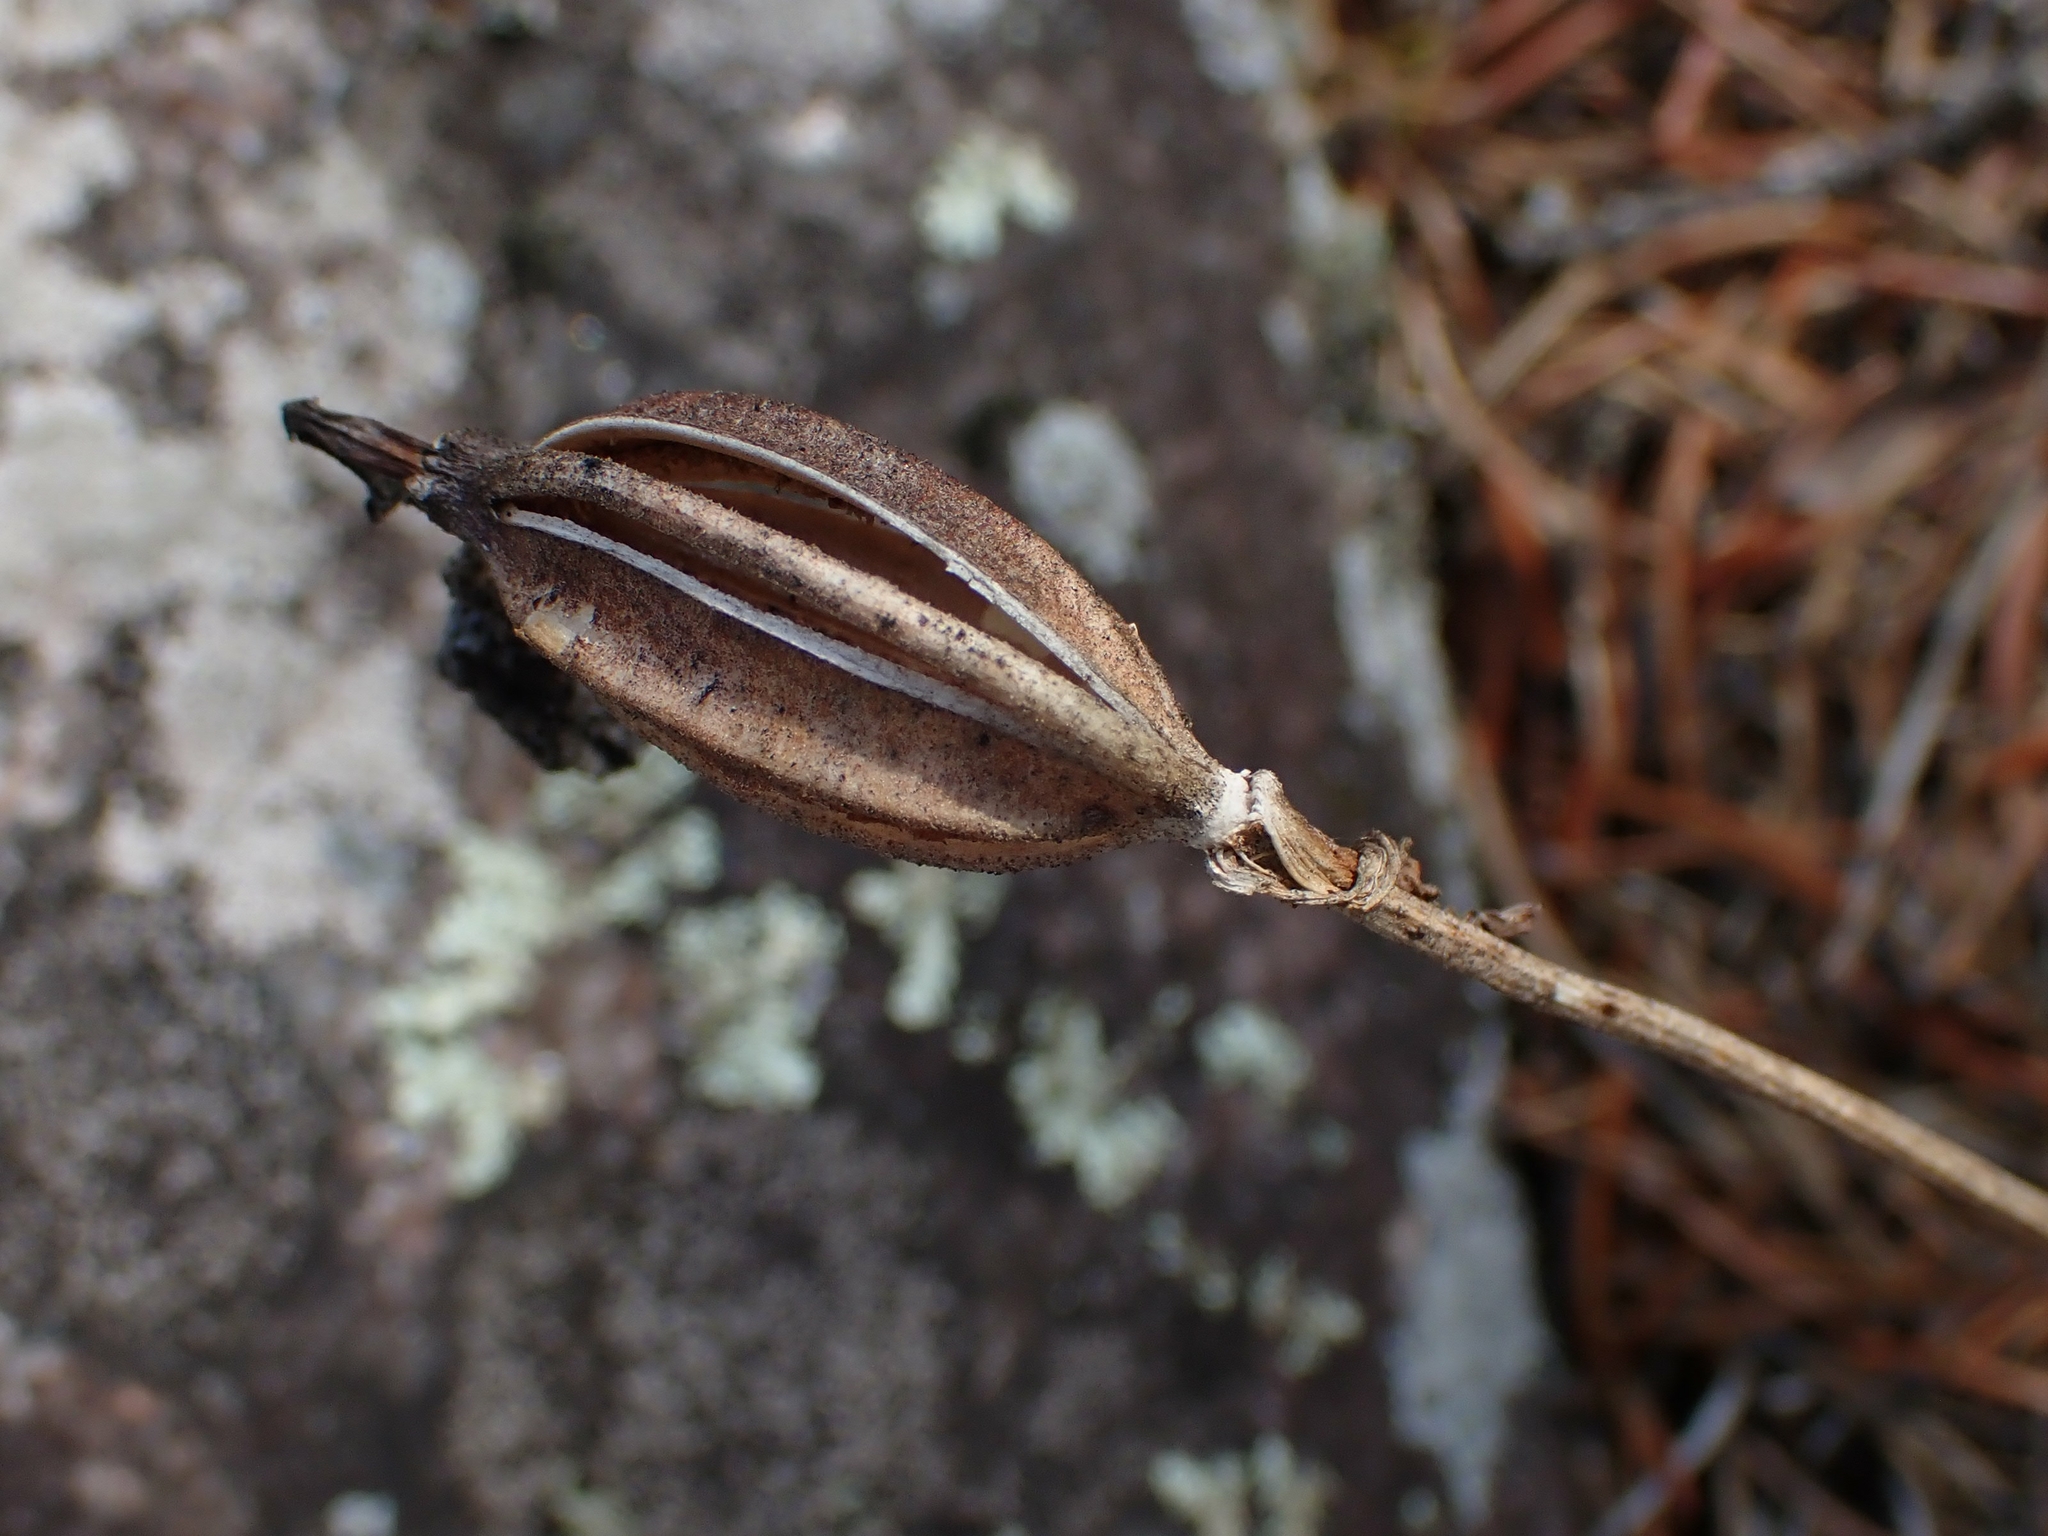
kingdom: Plantae
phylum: Tracheophyta
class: Liliopsida
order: Asparagales
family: Orchidaceae
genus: Cypripedium
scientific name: Cypripedium acaule
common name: Pink lady's-slipper
